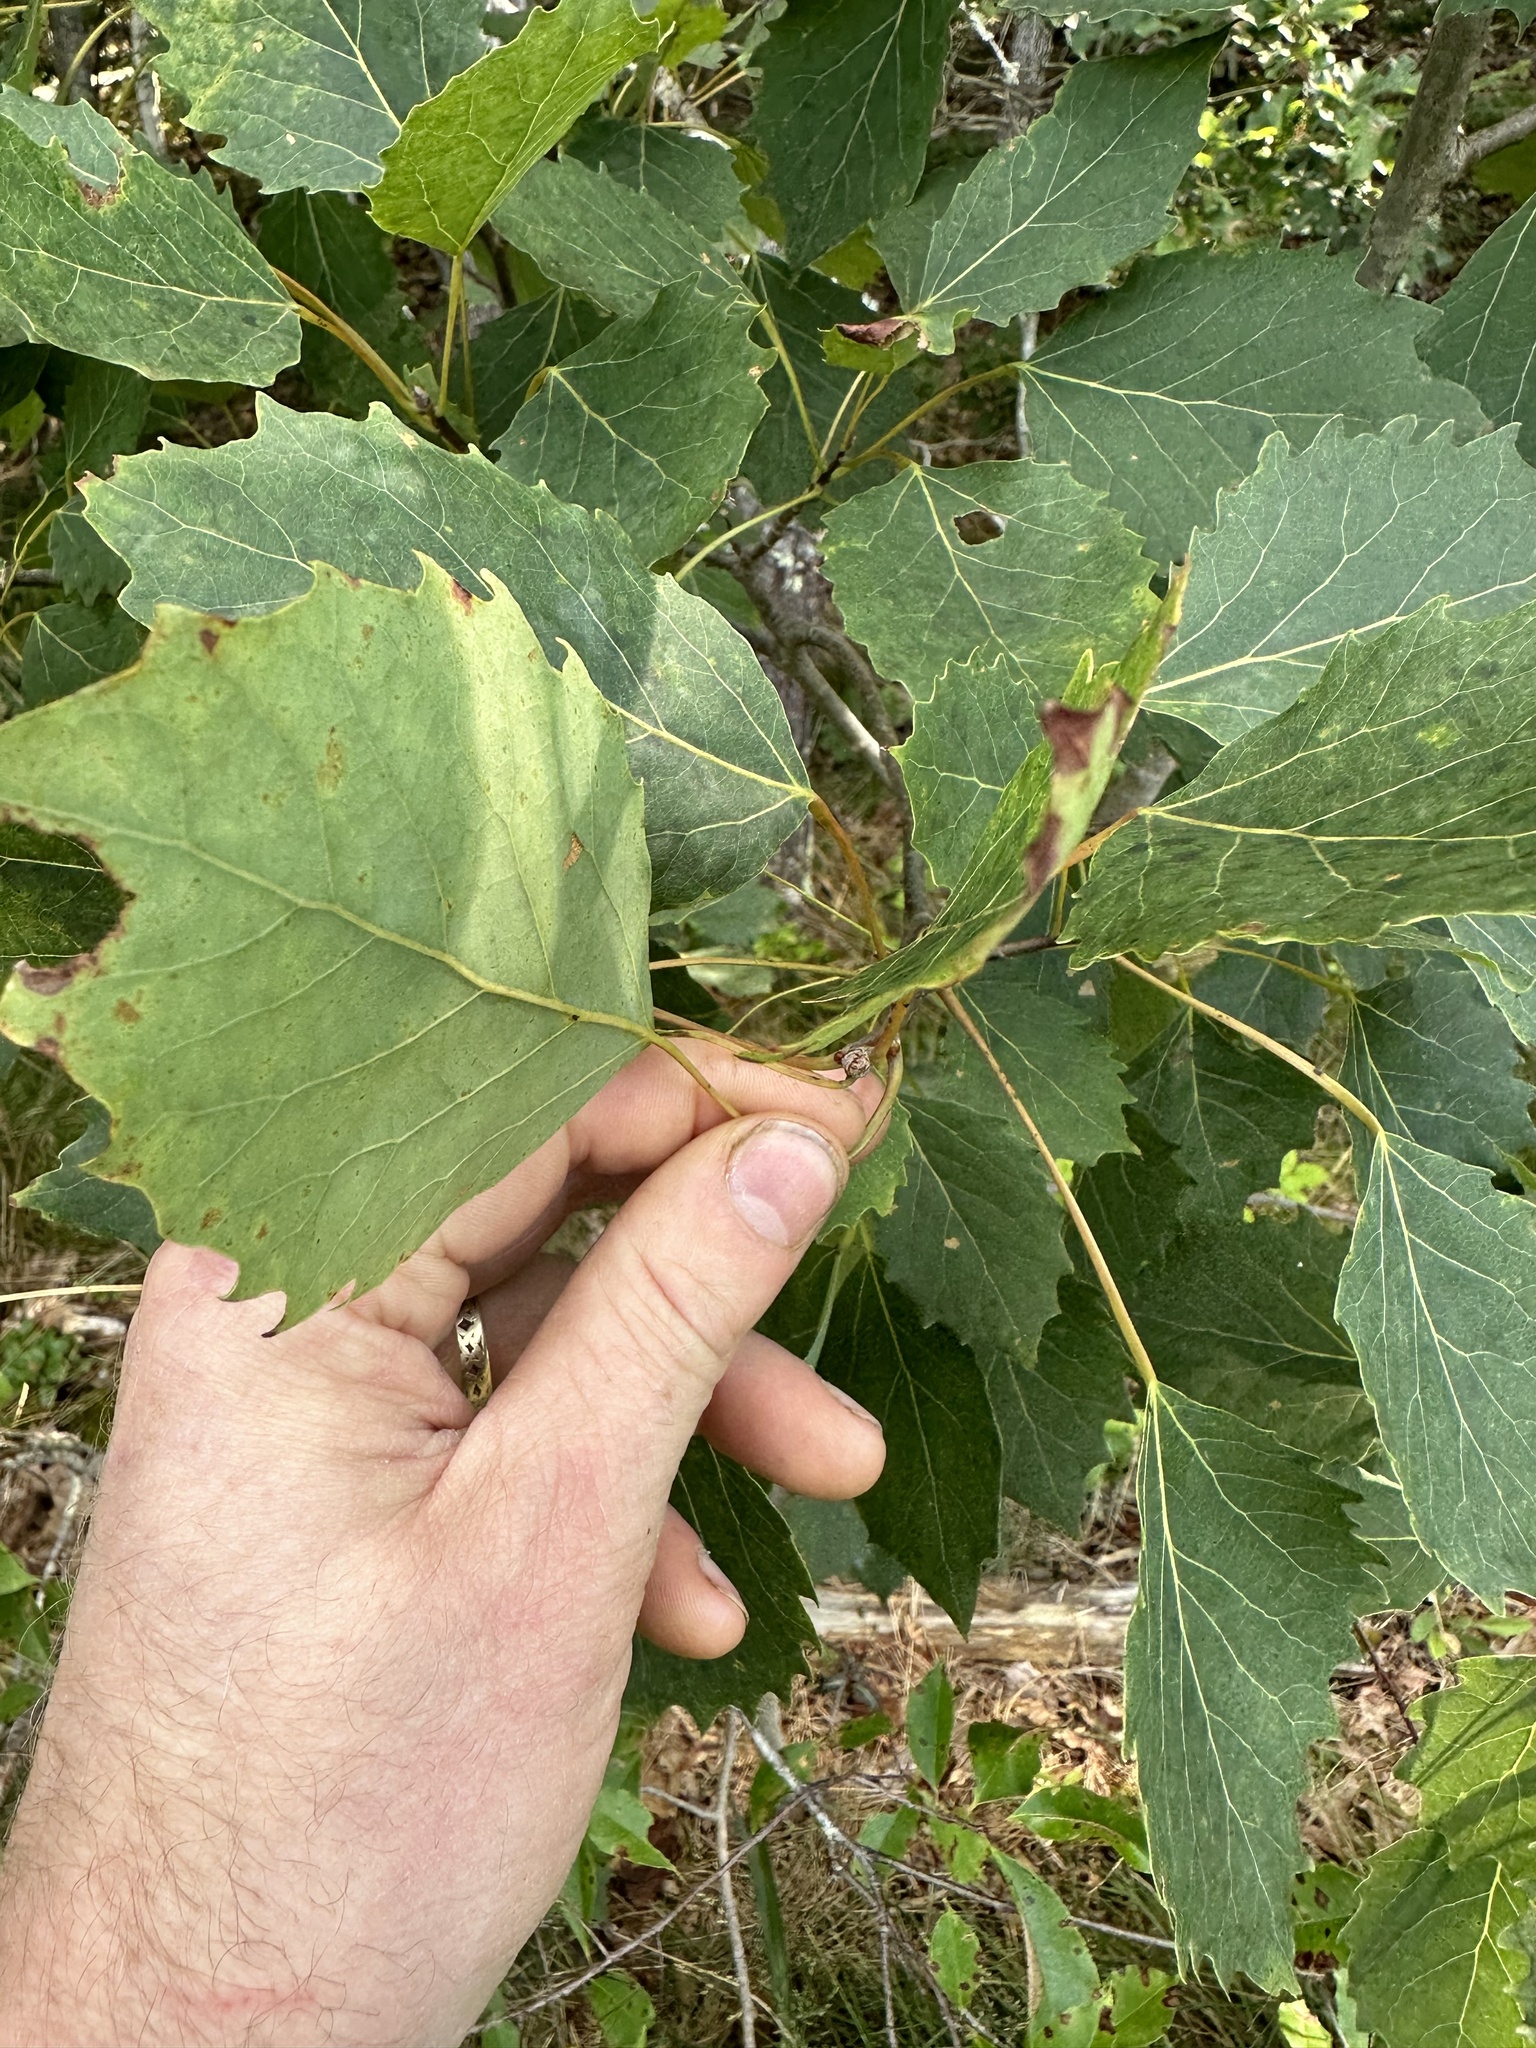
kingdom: Plantae
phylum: Tracheophyta
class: Magnoliopsida
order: Malpighiales
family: Salicaceae
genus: Populus
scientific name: Populus grandidentata
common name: Bigtooth aspen
